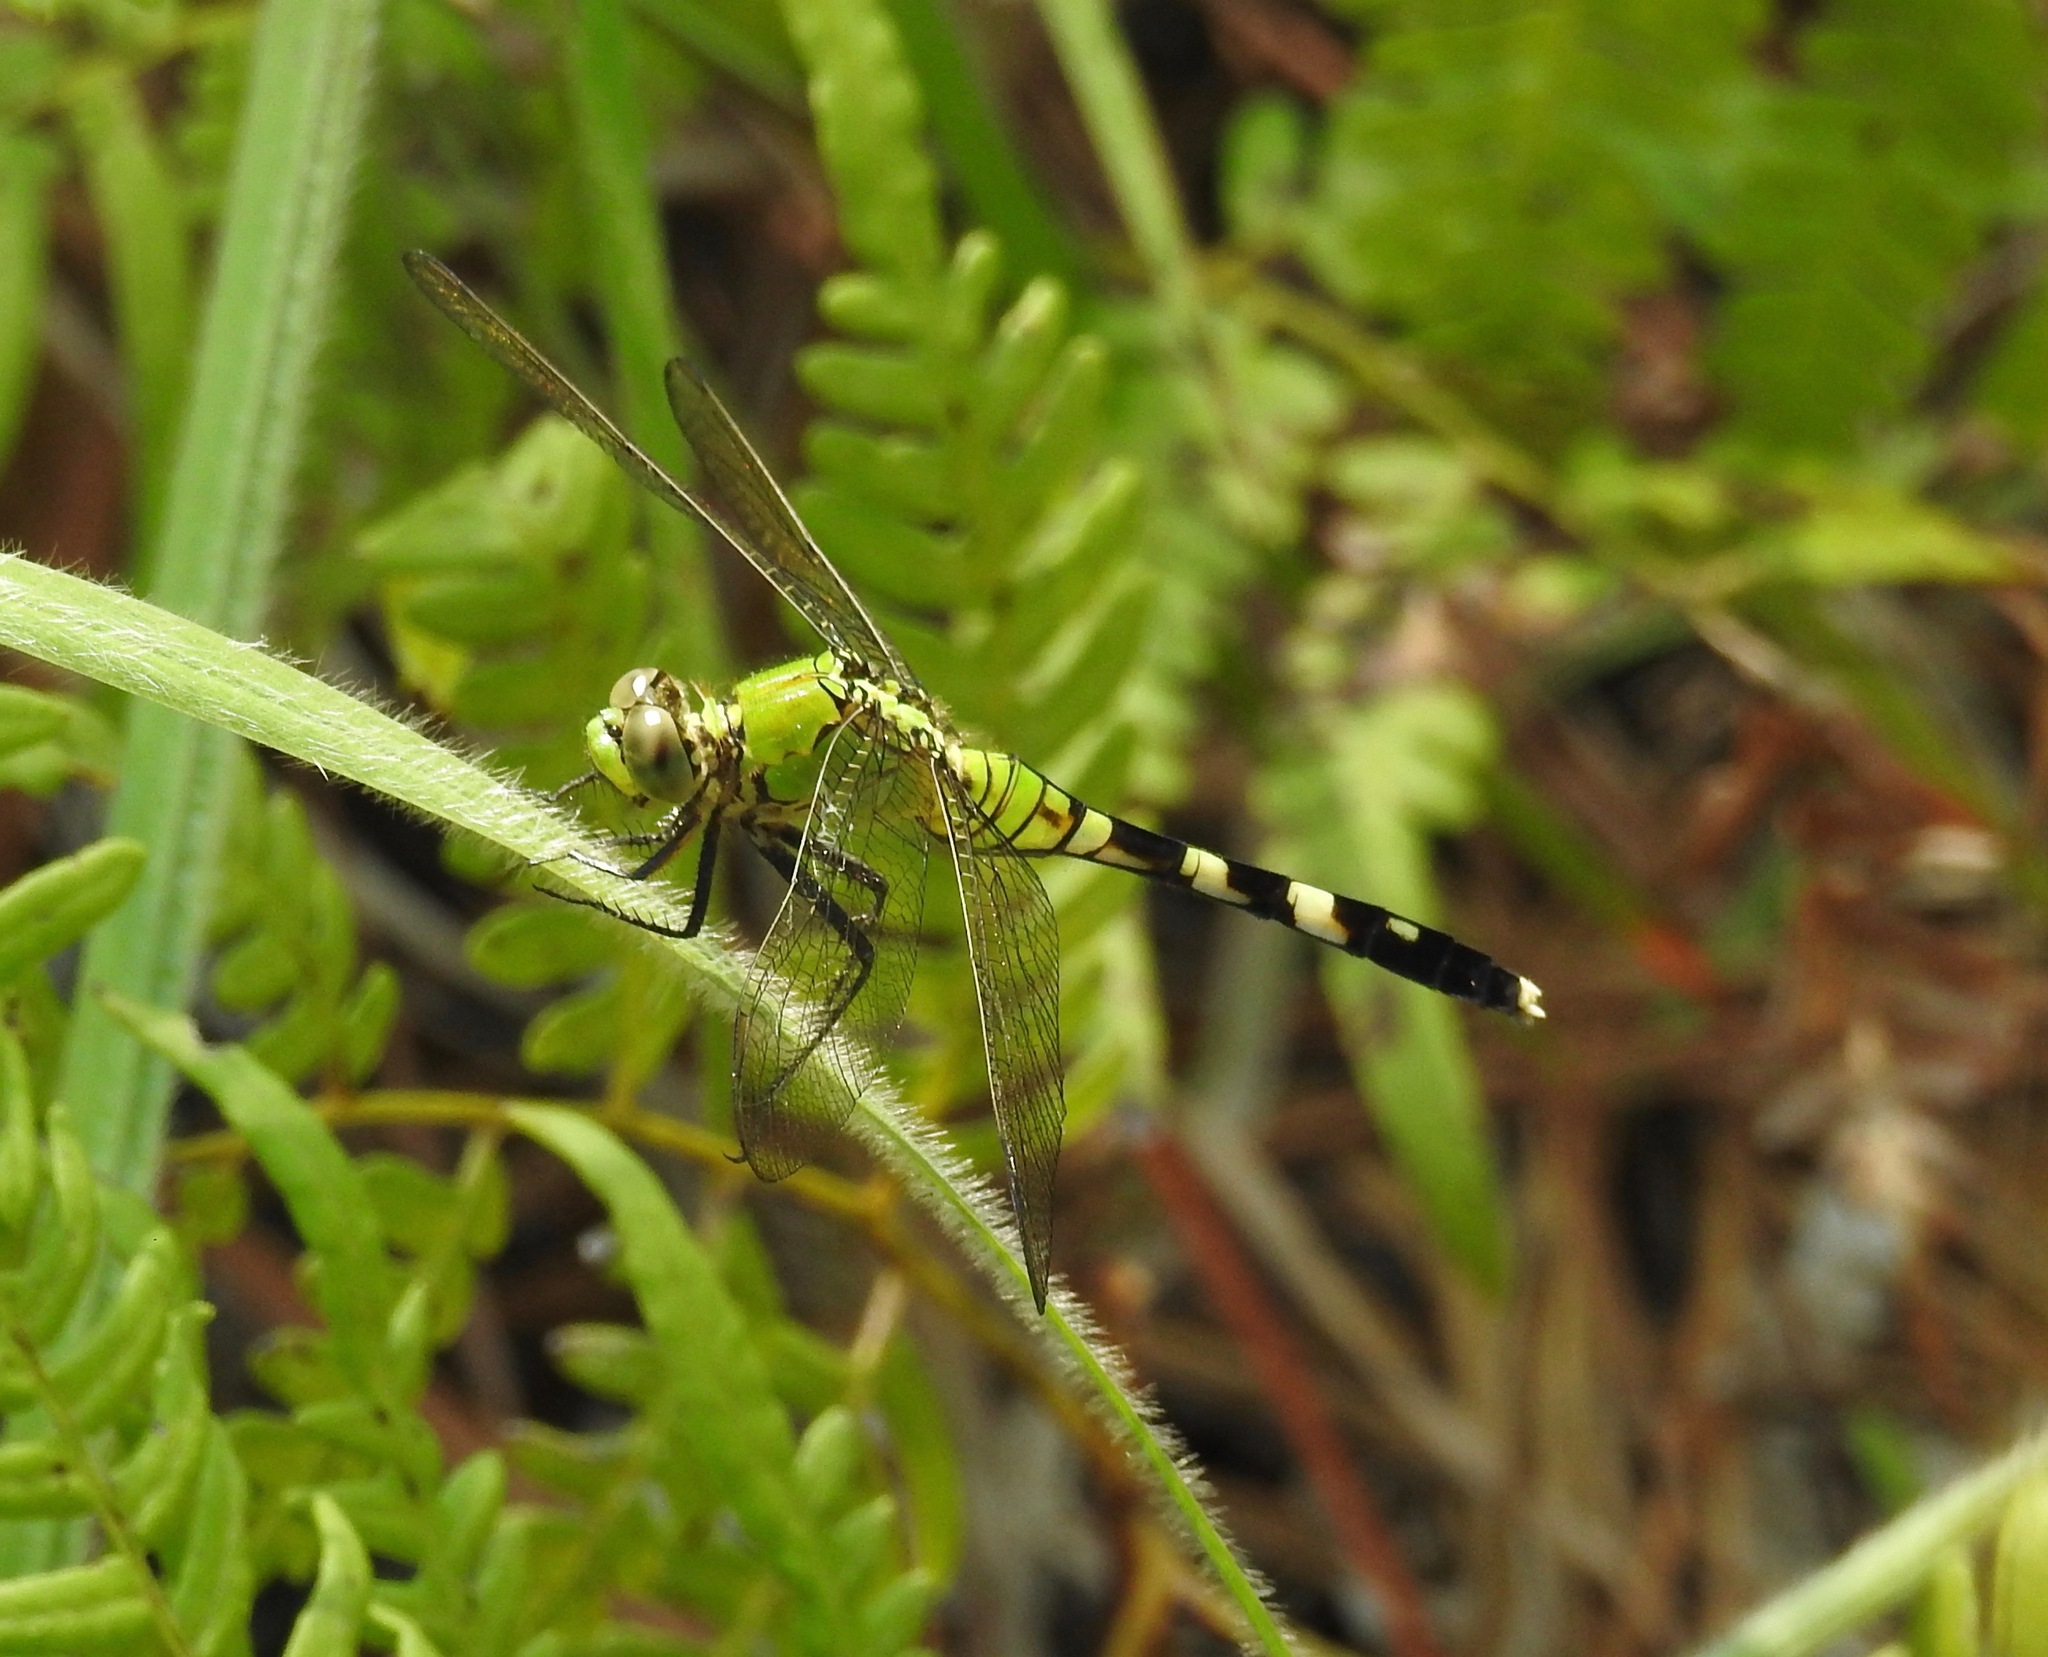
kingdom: Animalia
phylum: Arthropoda
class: Insecta
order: Odonata
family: Libellulidae
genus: Erythemis
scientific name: Erythemis simplicicollis
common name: Eastern pondhawk
